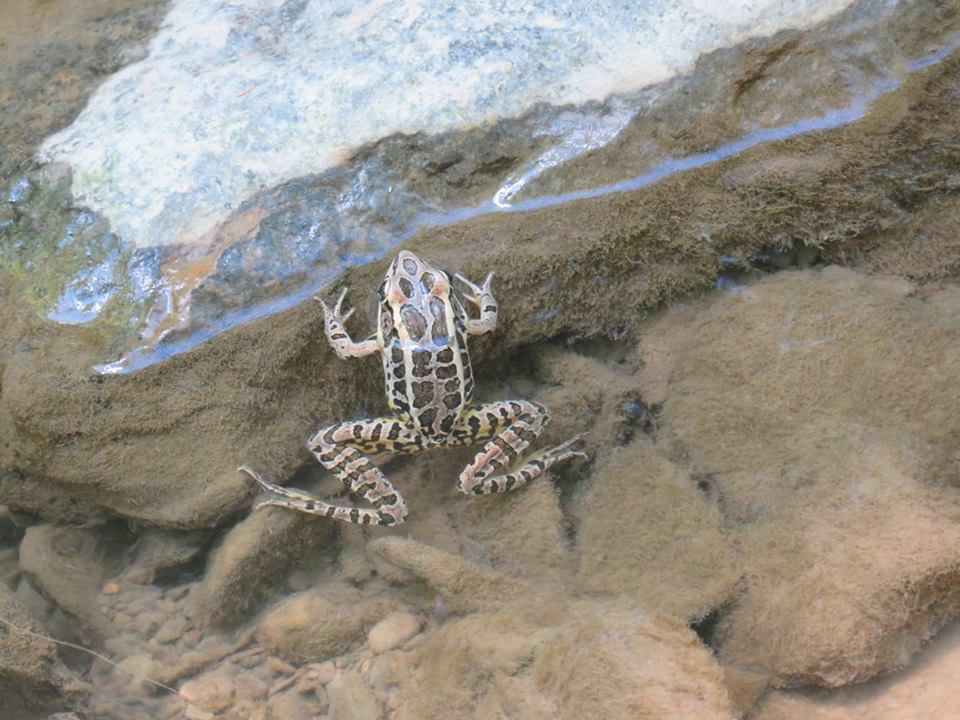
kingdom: Animalia
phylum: Chordata
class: Amphibia
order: Anura
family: Ranidae
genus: Lithobates
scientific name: Lithobates palustris
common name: Pickerel frog
